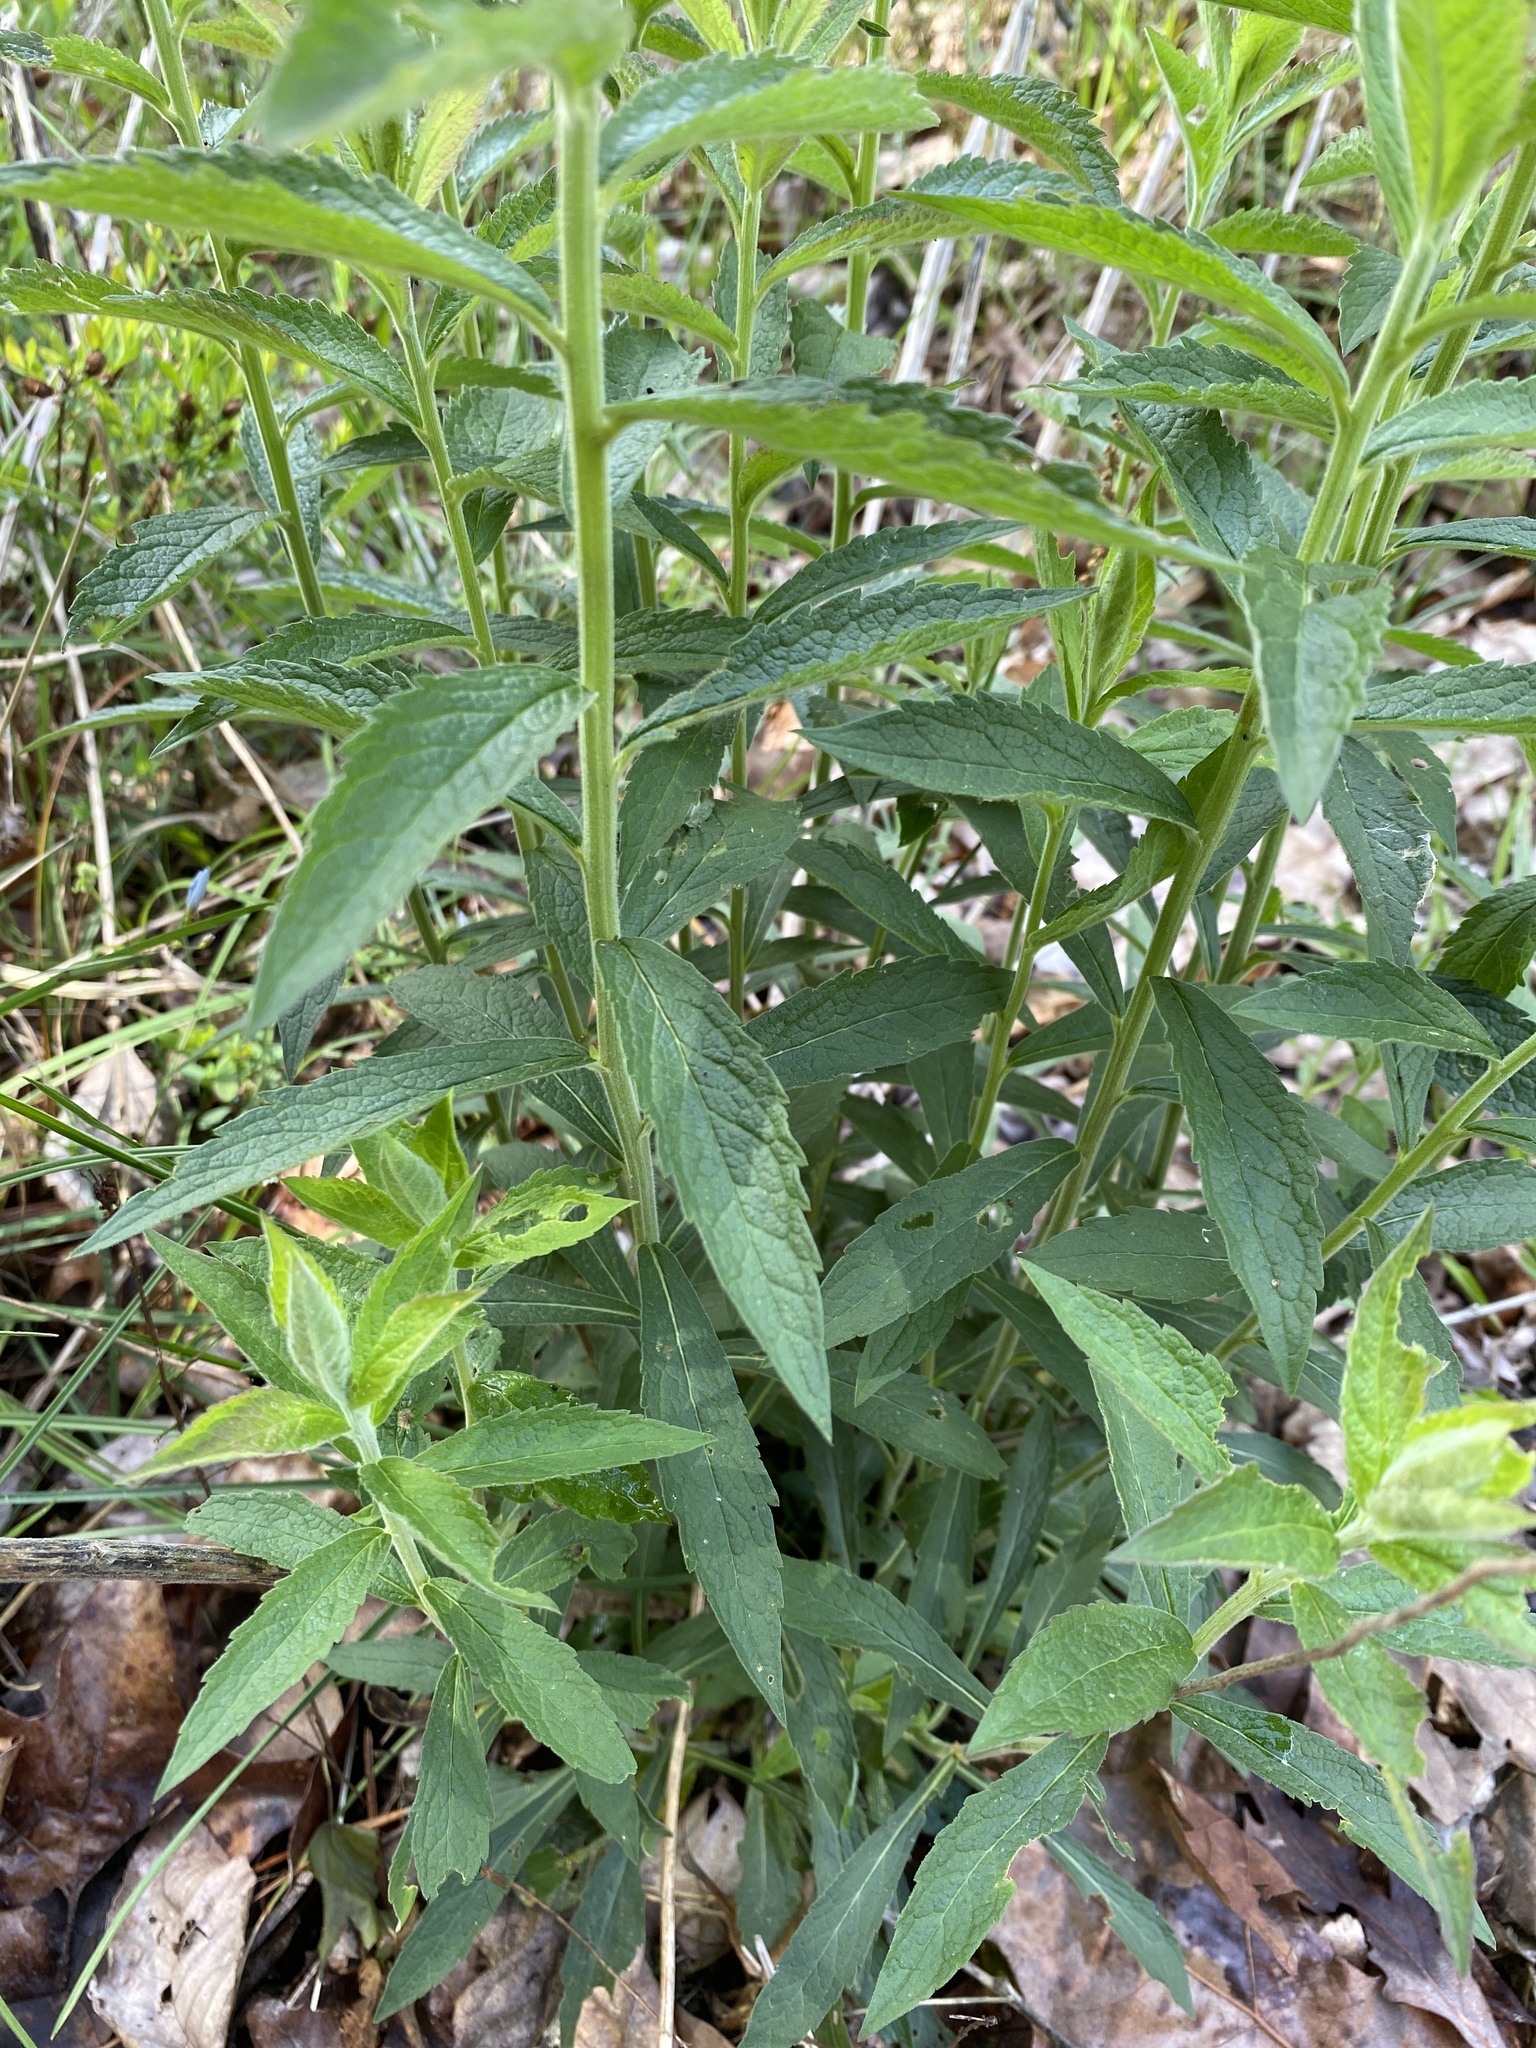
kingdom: Plantae
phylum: Tracheophyta
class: Magnoliopsida
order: Asterales
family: Asteraceae
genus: Solidago
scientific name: Solidago rugosa
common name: Rough-stemmed goldenrod
